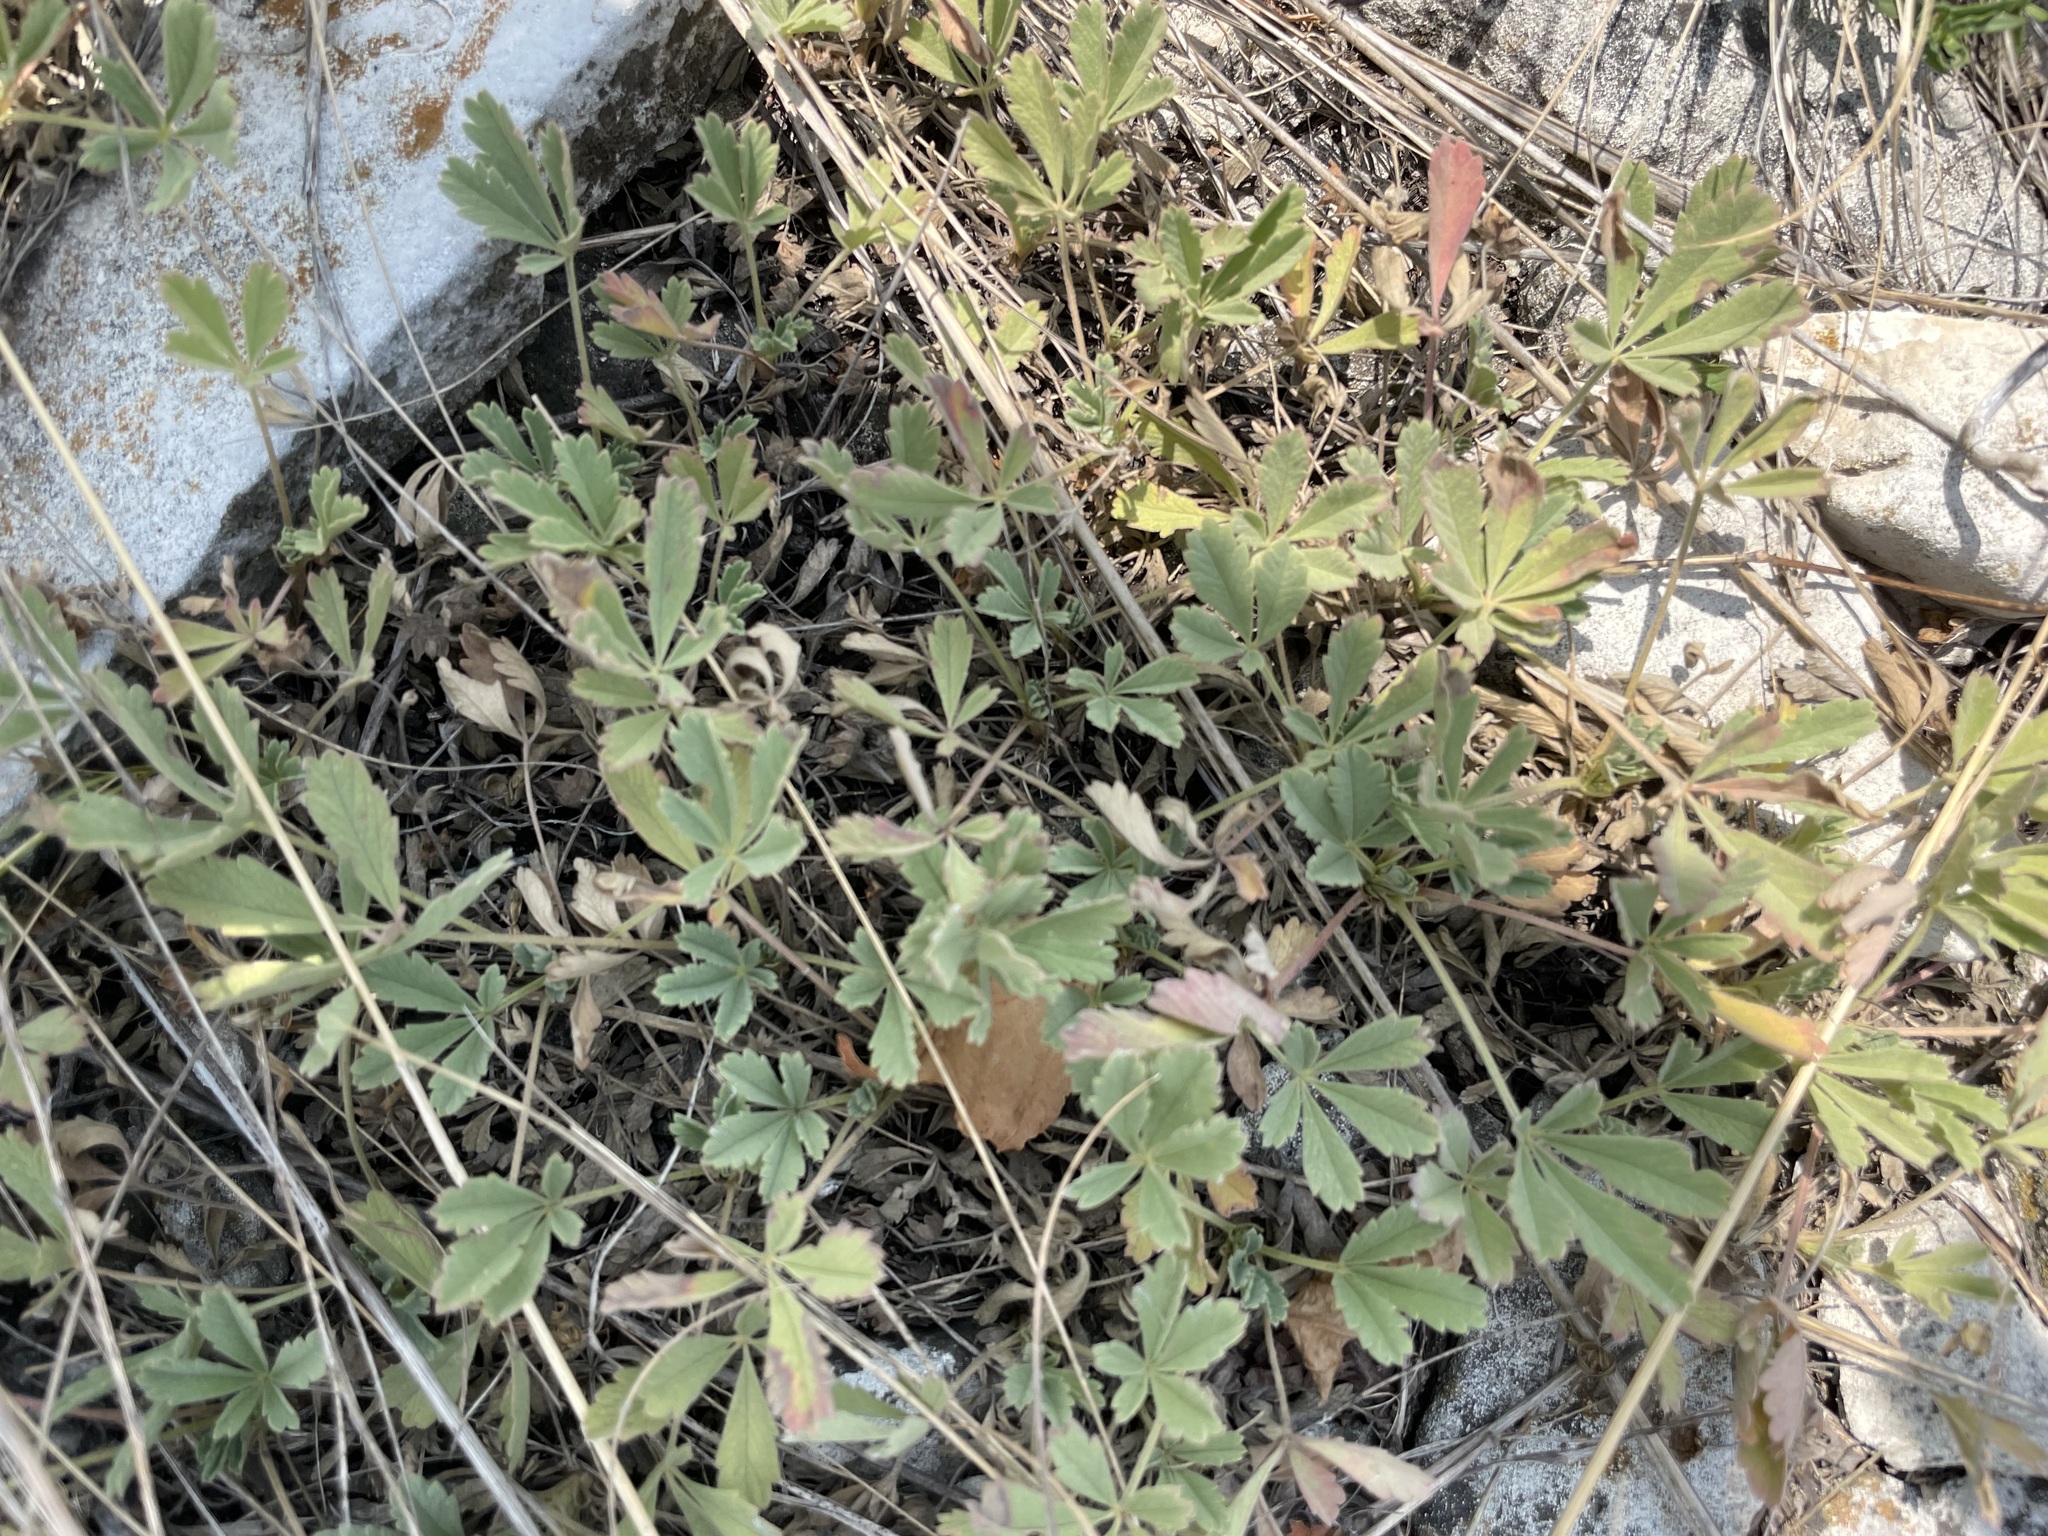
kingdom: Plantae
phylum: Tracheophyta
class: Magnoliopsida
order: Rosales
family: Rosaceae
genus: Potentilla
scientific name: Potentilla incana
